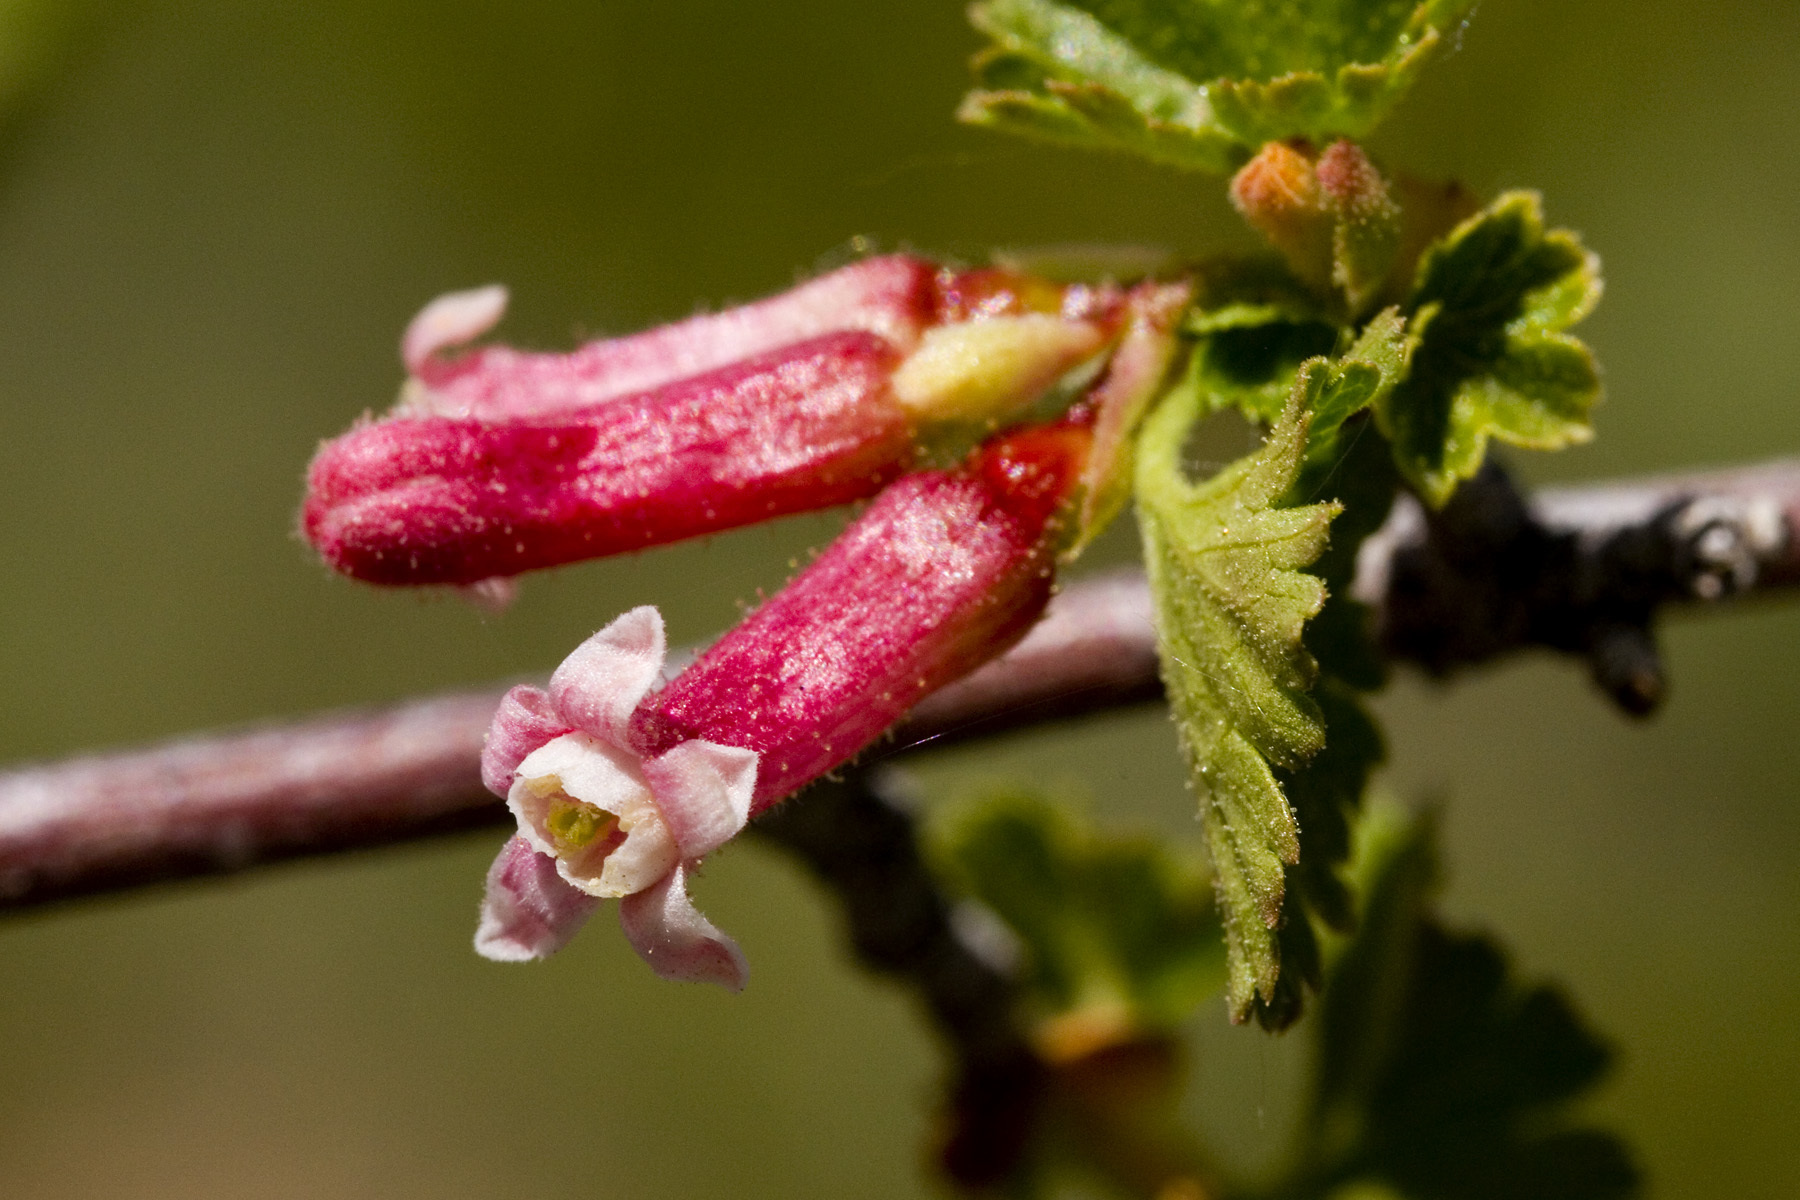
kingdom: Plantae
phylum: Tracheophyta
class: Magnoliopsida
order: Saxifragales
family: Grossulariaceae
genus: Ribes
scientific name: Ribes cereum
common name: Wax currant
